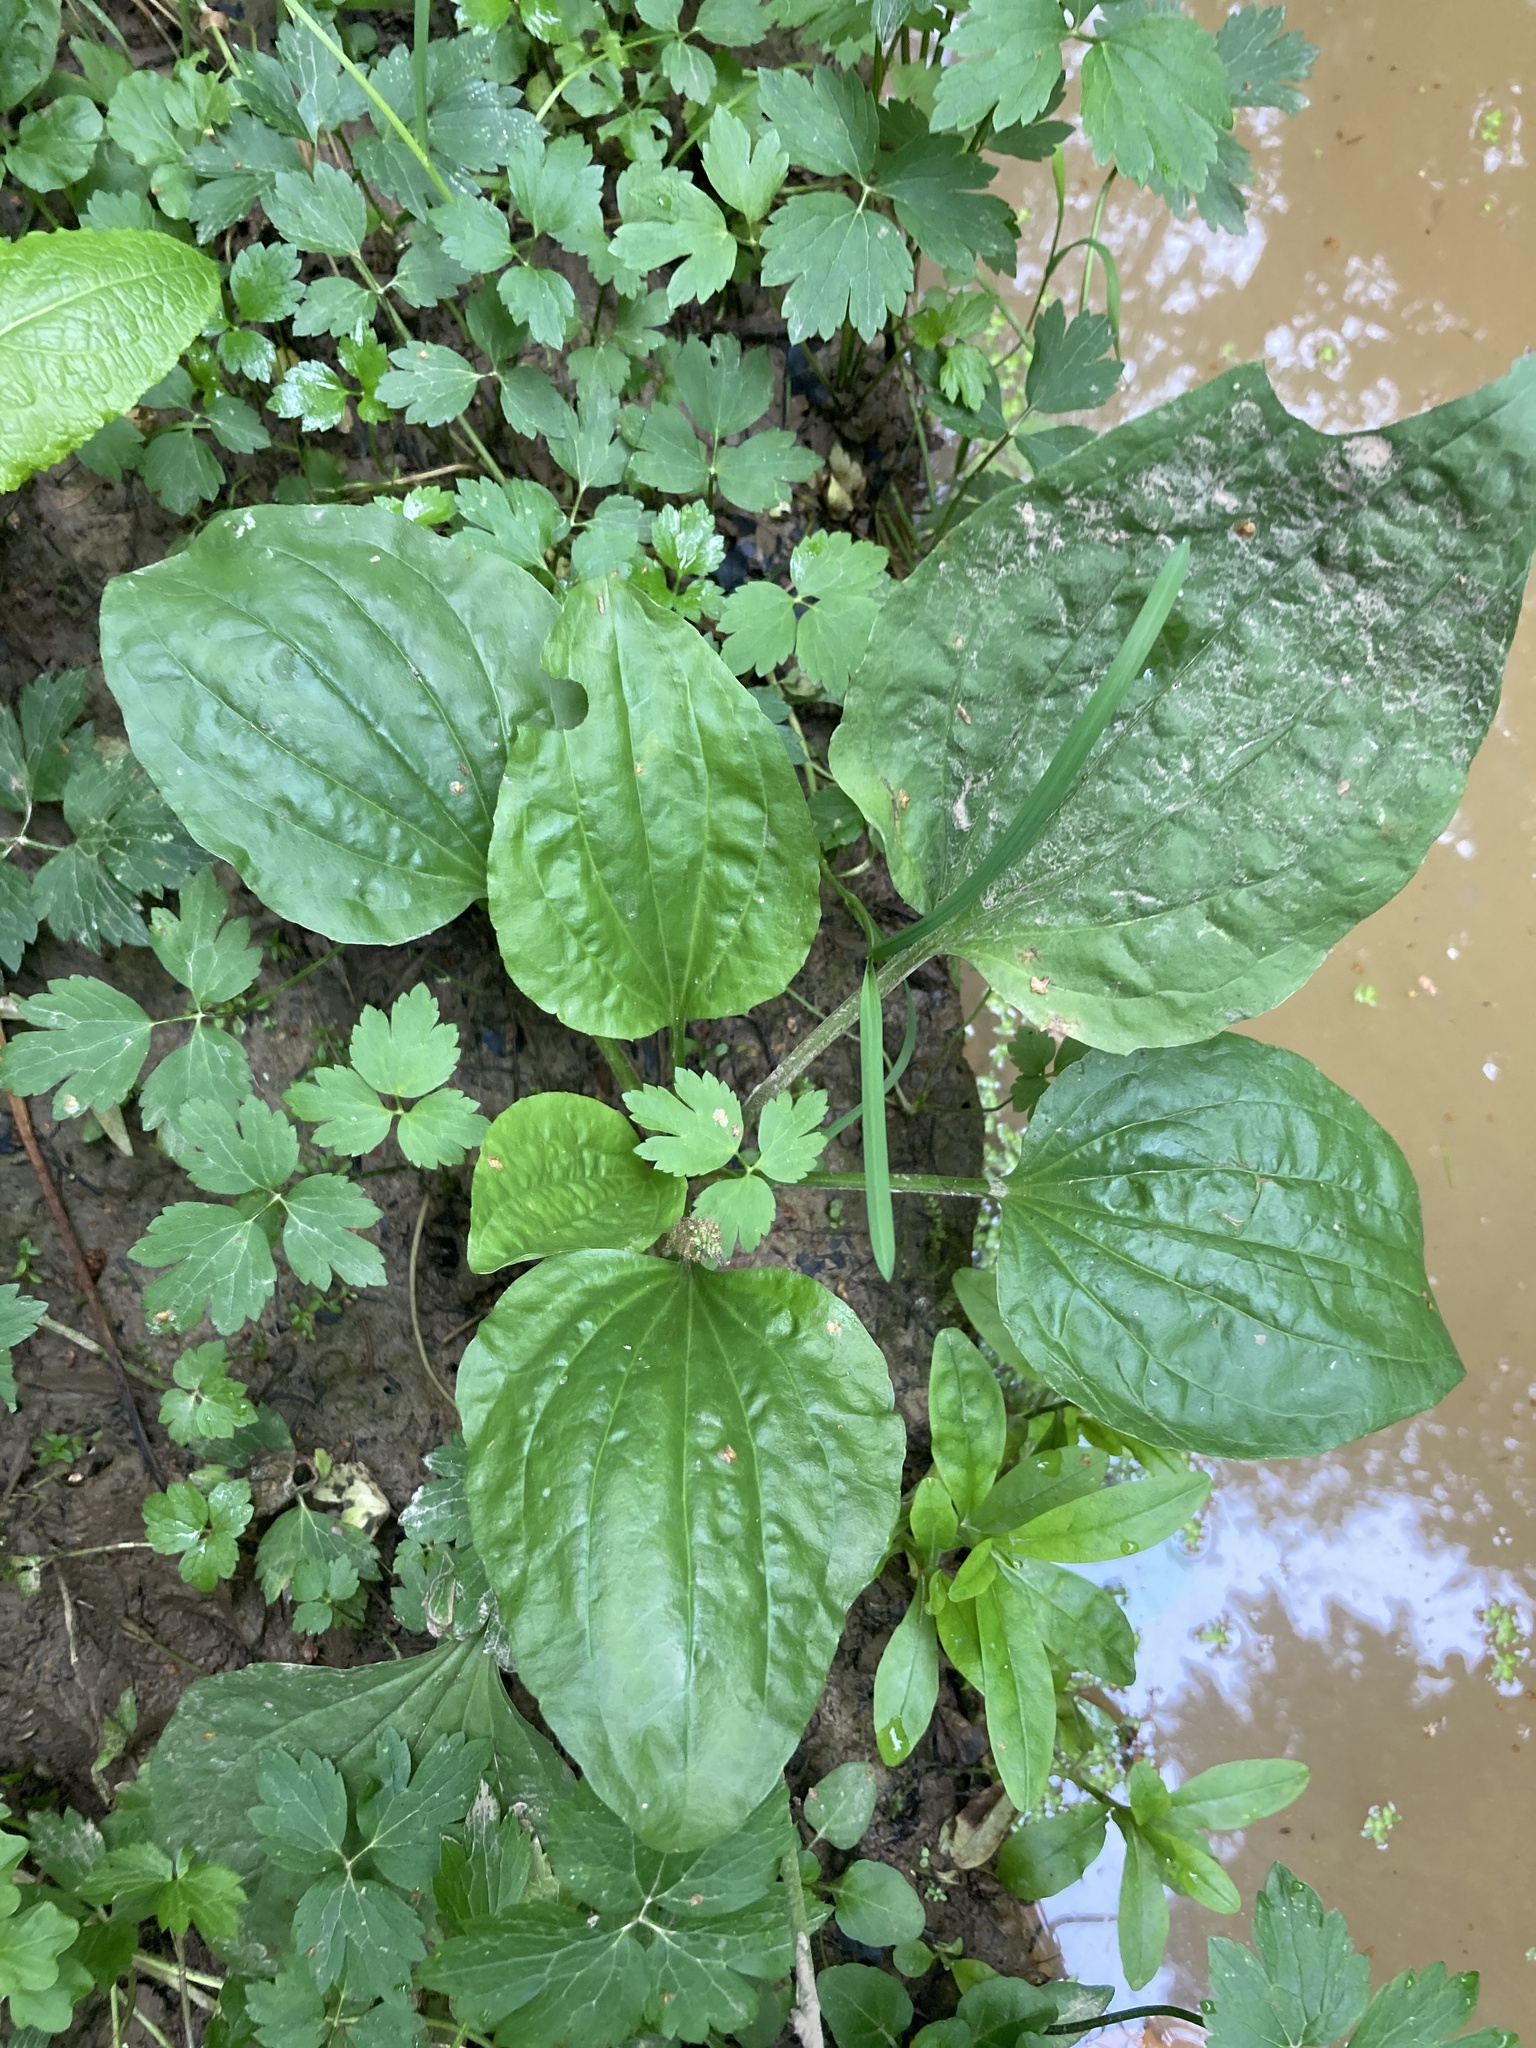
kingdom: Plantae
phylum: Tracheophyta
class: Magnoliopsida
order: Lamiales
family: Plantaginaceae
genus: Plantago
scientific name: Plantago major
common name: Common plantain
